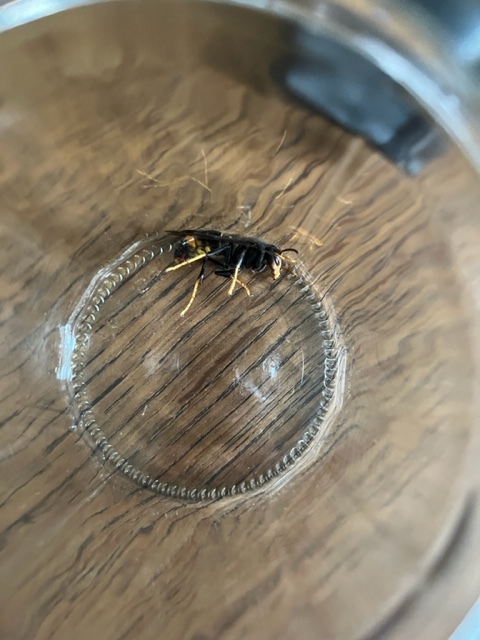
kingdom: Animalia
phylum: Arthropoda
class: Insecta
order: Hymenoptera
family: Vespidae
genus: Vespa
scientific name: Vespa velutina
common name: Asian hornet
